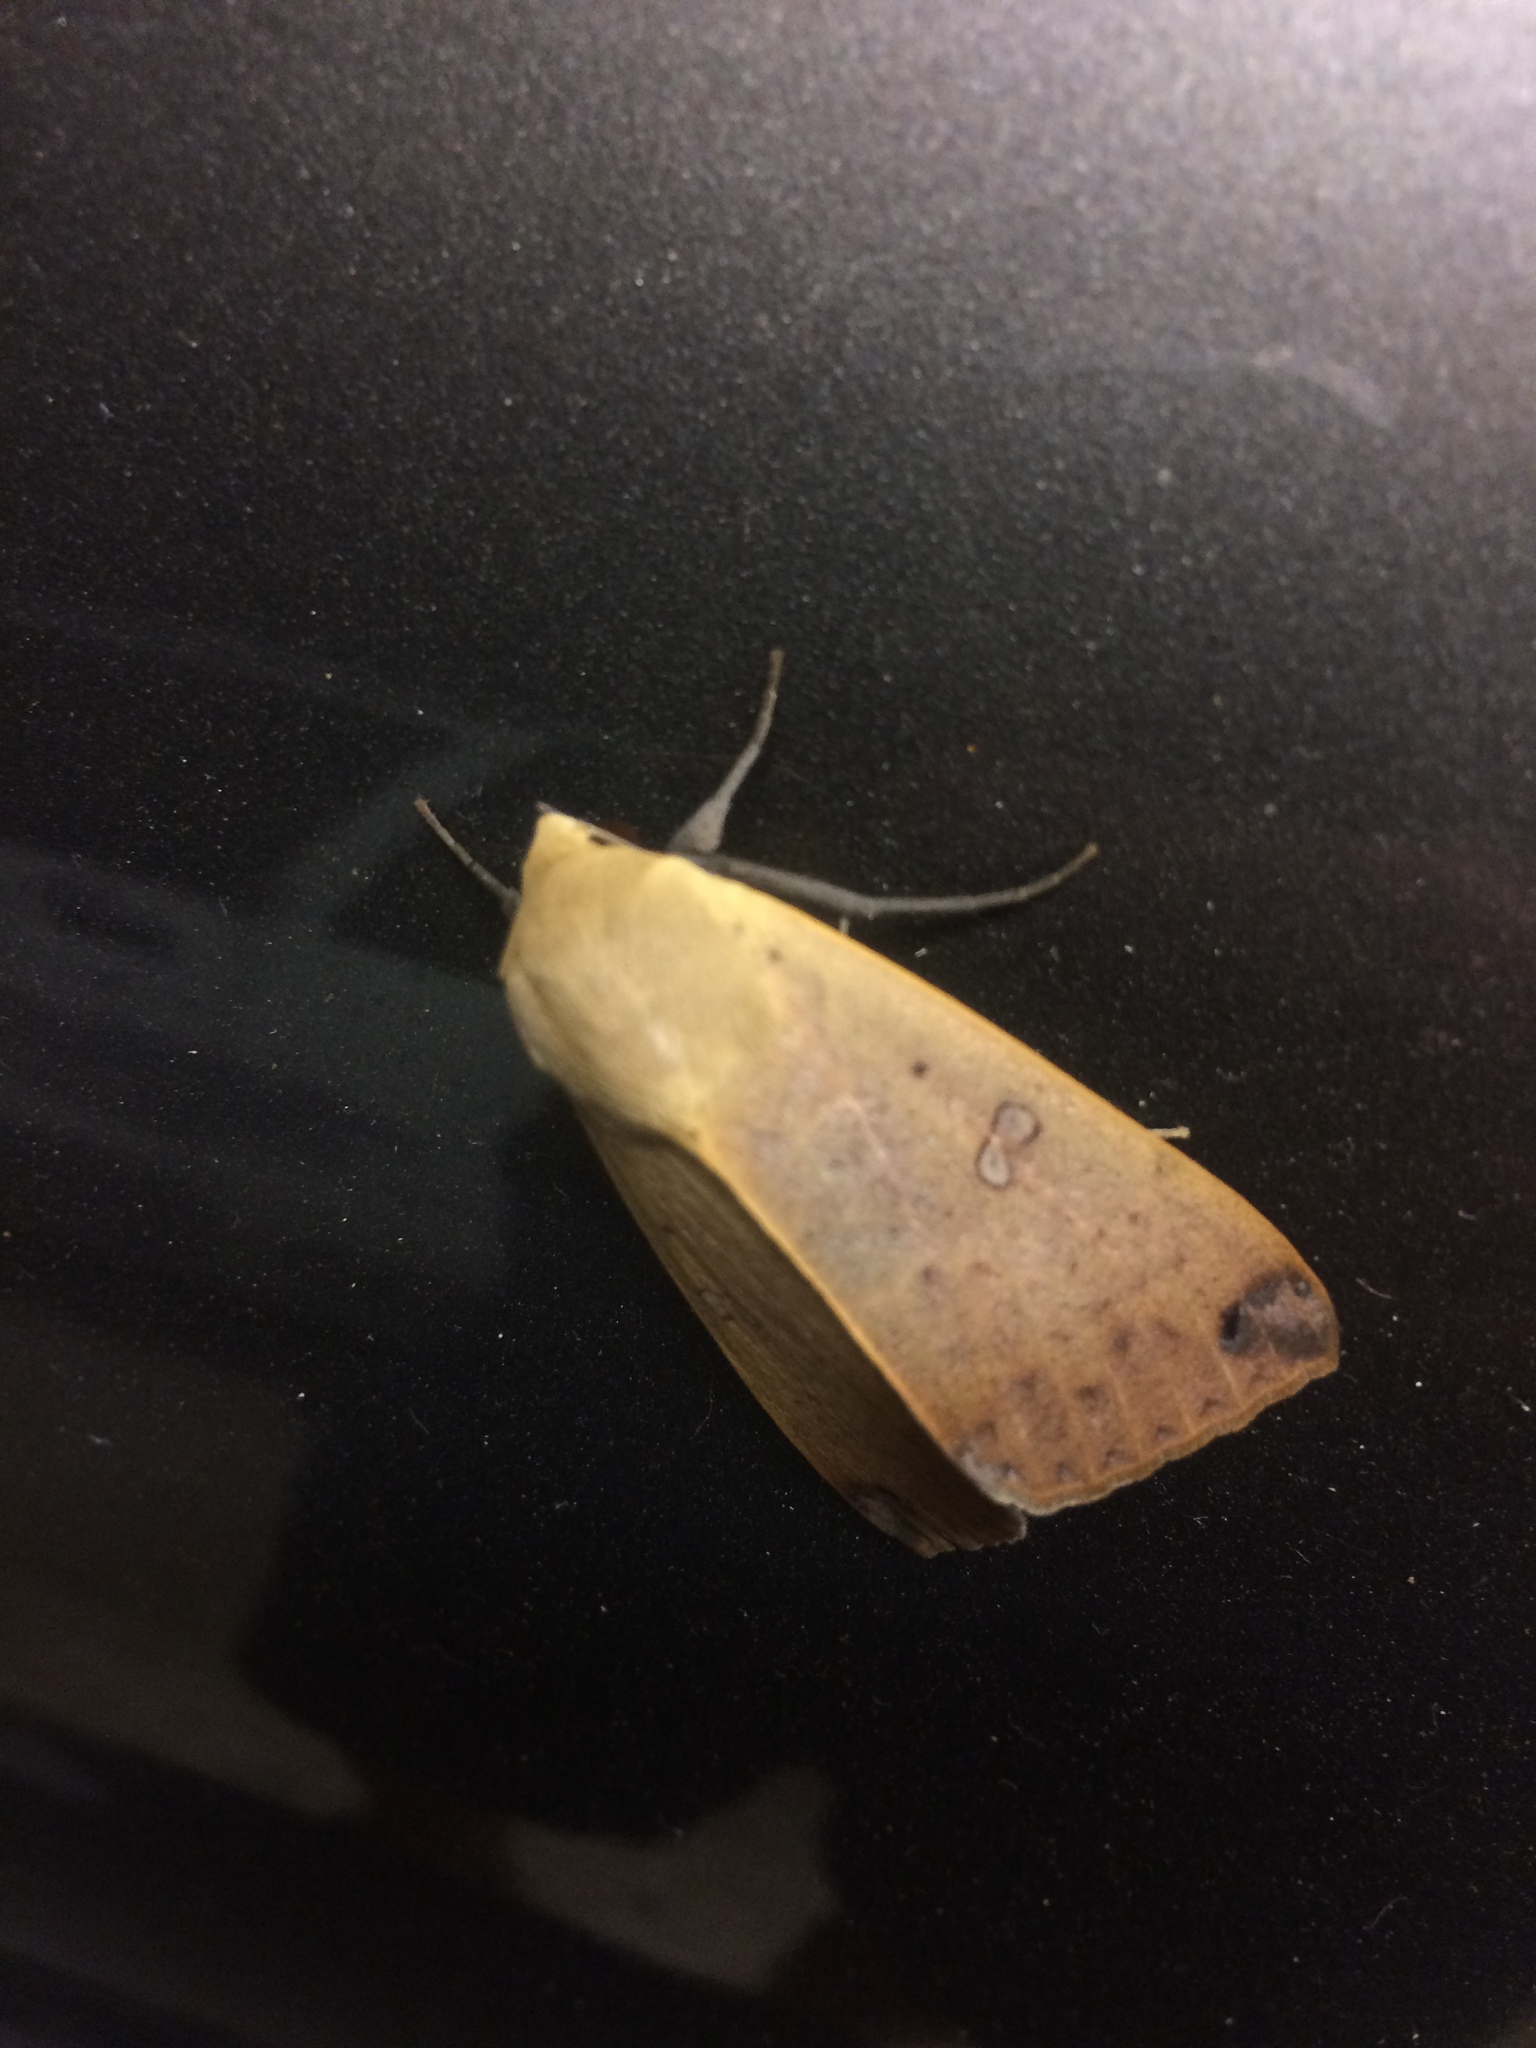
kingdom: Animalia
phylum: Arthropoda
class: Insecta
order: Lepidoptera
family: Erebidae
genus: Ophiusa
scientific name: Ophiusa disjungens
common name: Moth
